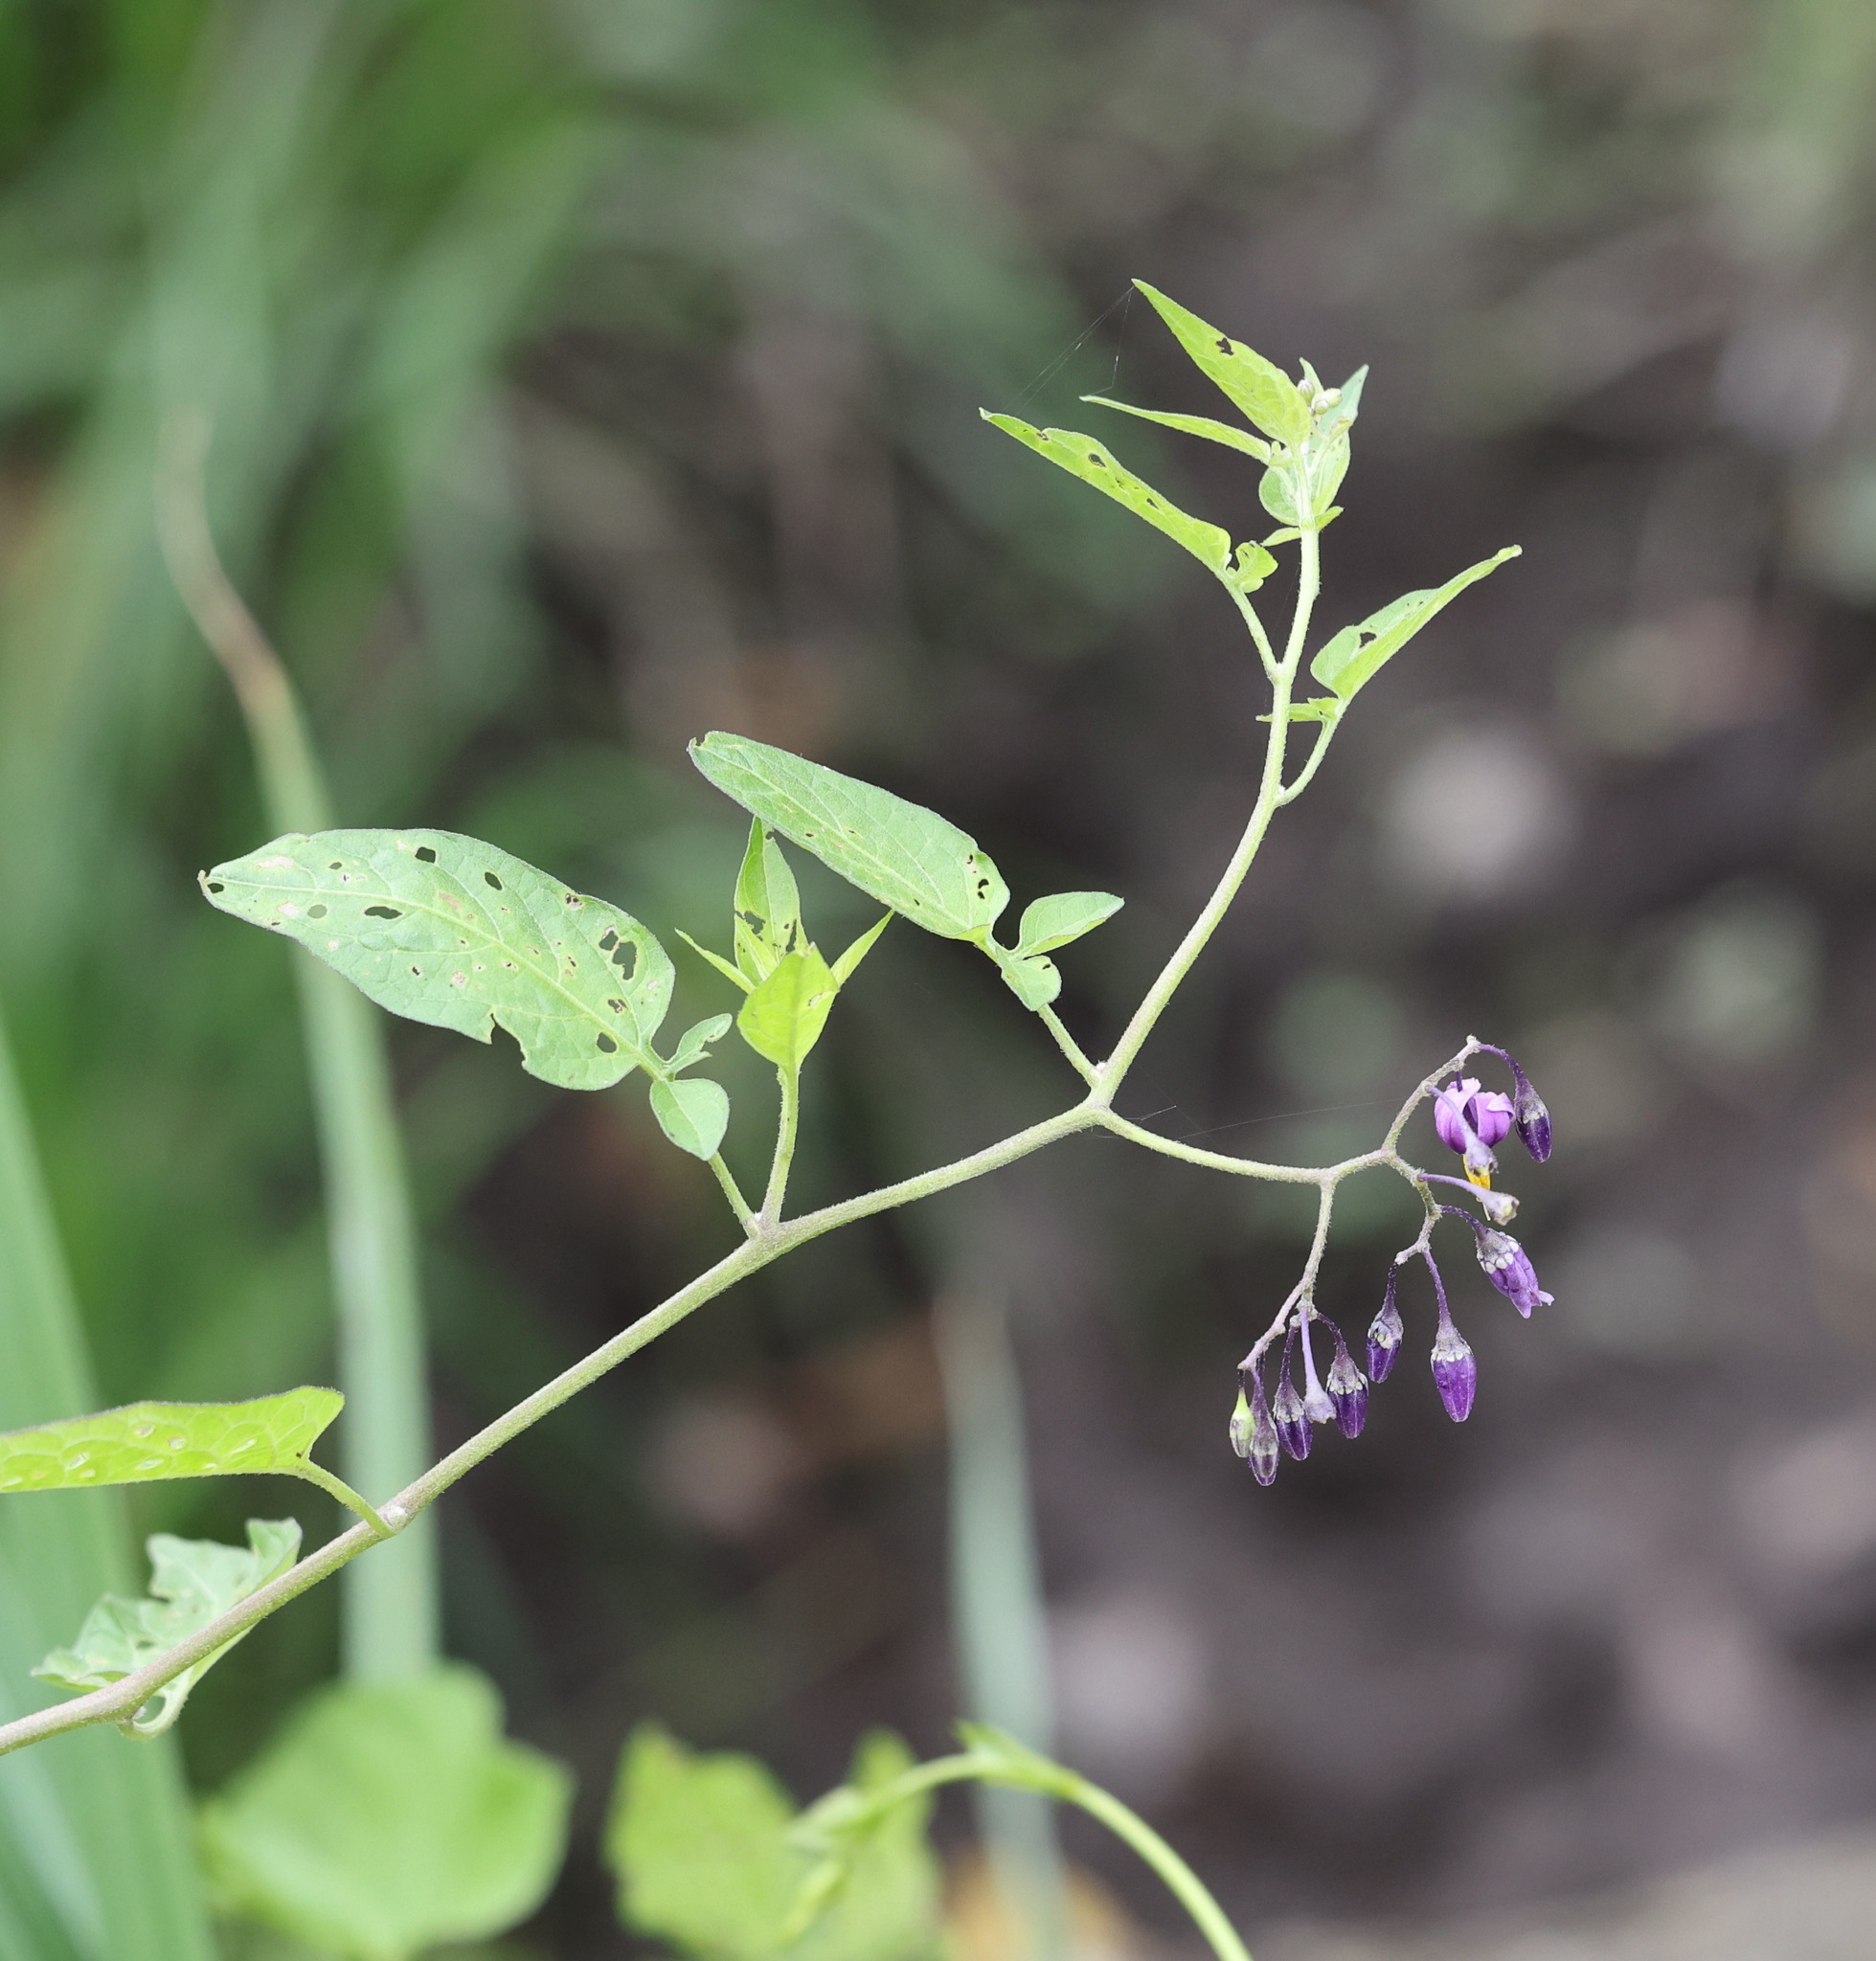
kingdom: Plantae
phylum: Tracheophyta
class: Magnoliopsida
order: Solanales
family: Solanaceae
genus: Solanum
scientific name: Solanum dulcamara
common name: Climbing nightshade
